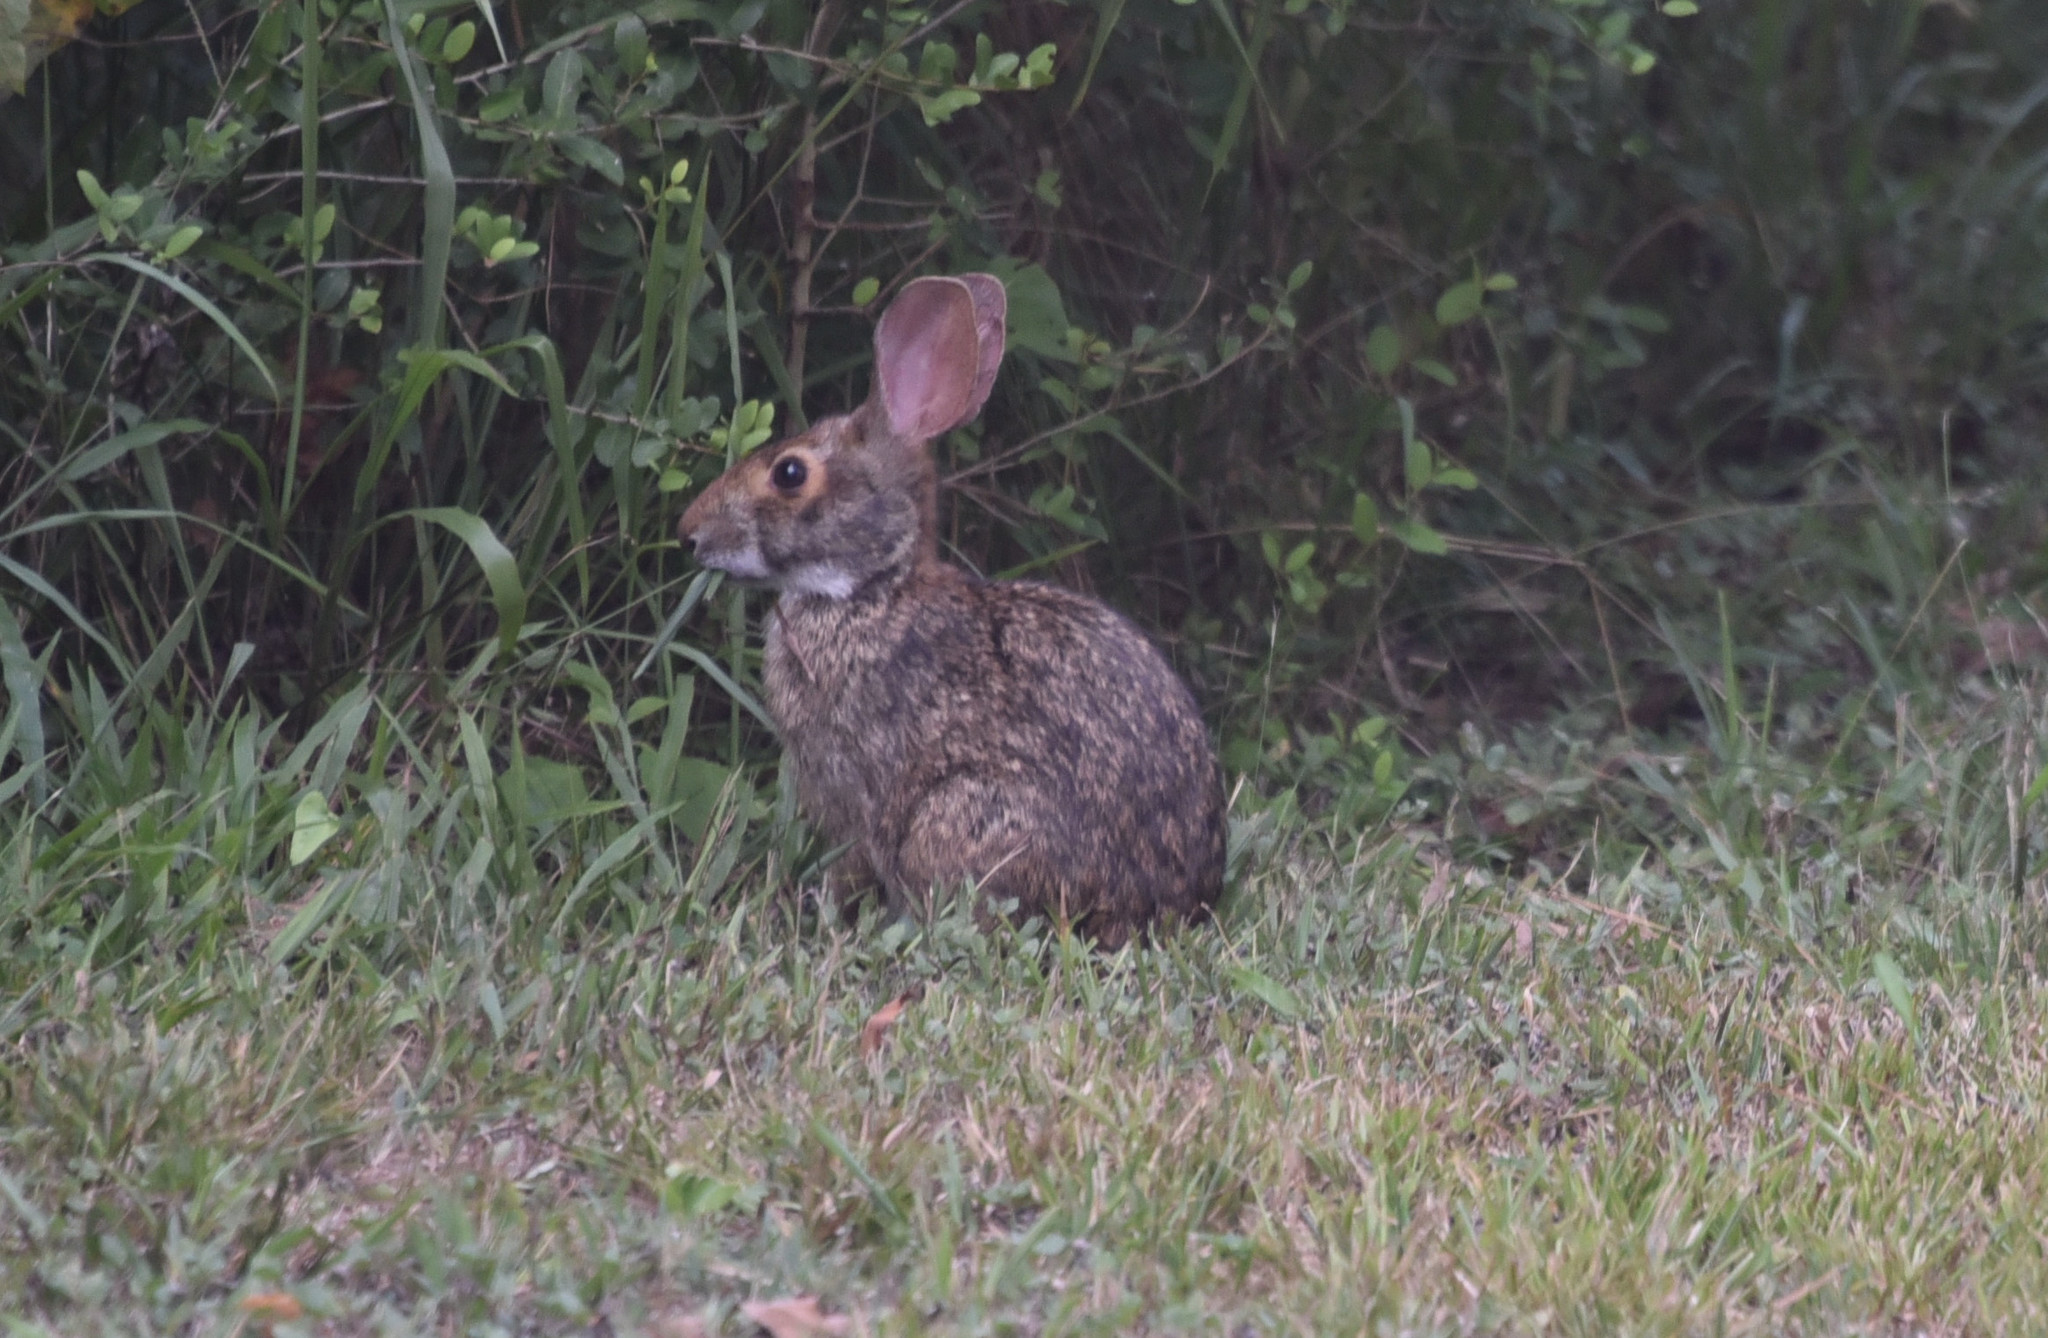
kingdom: Animalia
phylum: Chordata
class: Mammalia
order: Lagomorpha
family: Leporidae
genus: Sylvilagus
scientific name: Sylvilagus aquaticus
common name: Swamp rabbit
